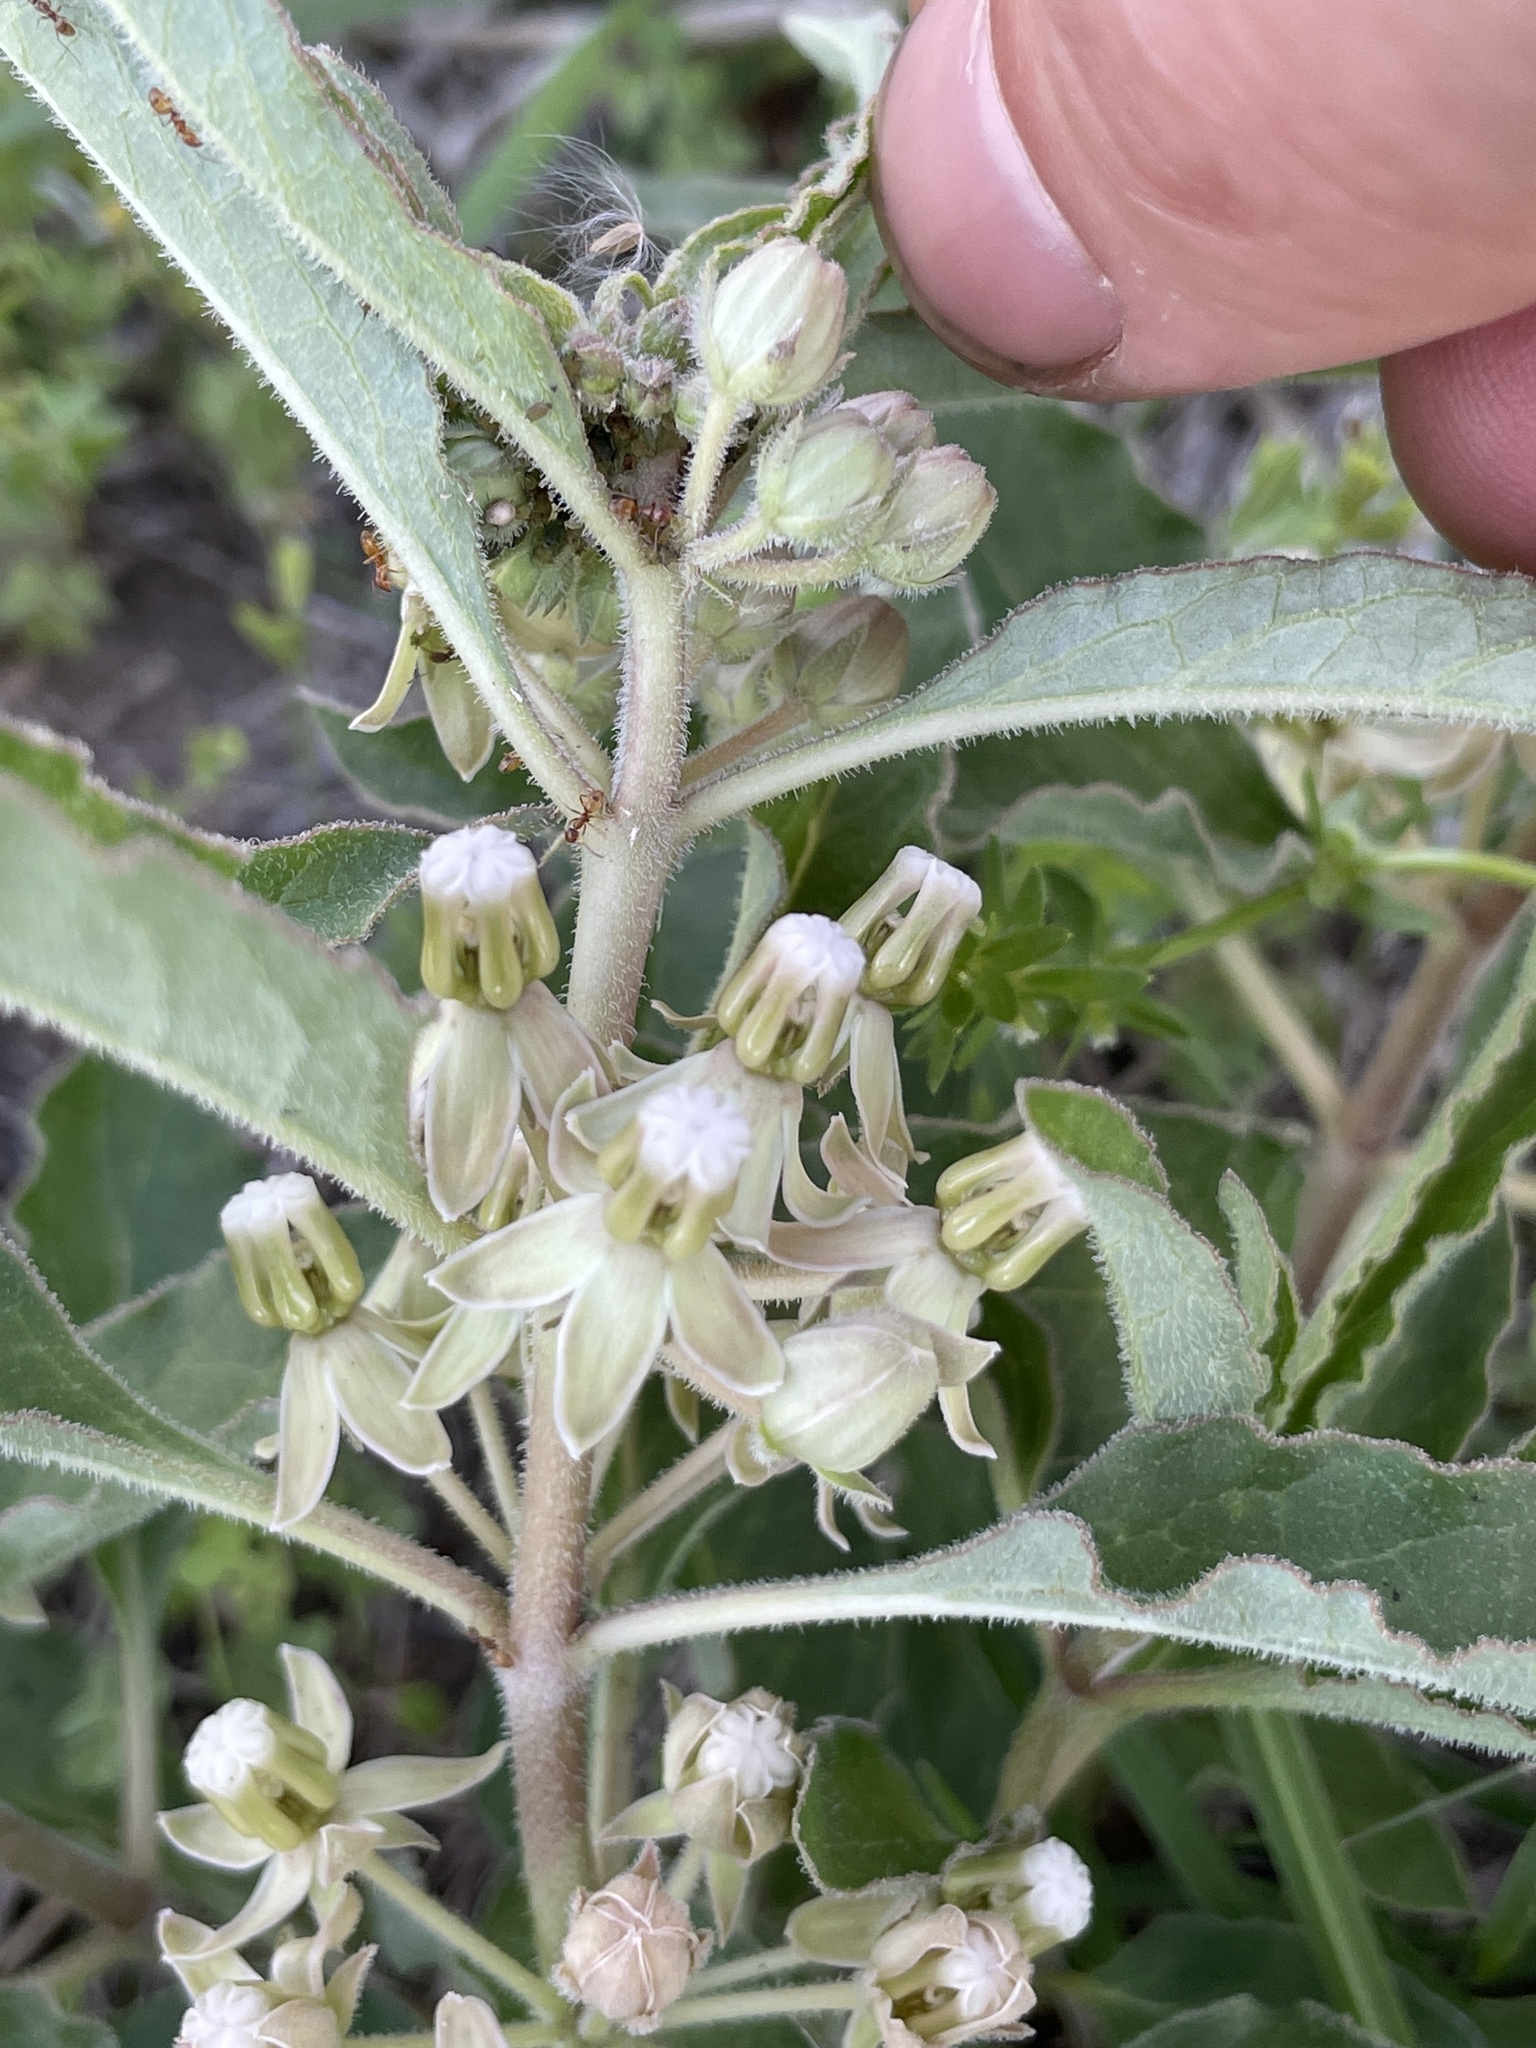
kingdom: Plantae
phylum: Tracheophyta
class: Magnoliopsida
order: Gentianales
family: Apocynaceae
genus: Asclepias
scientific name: Asclepias emoryi
